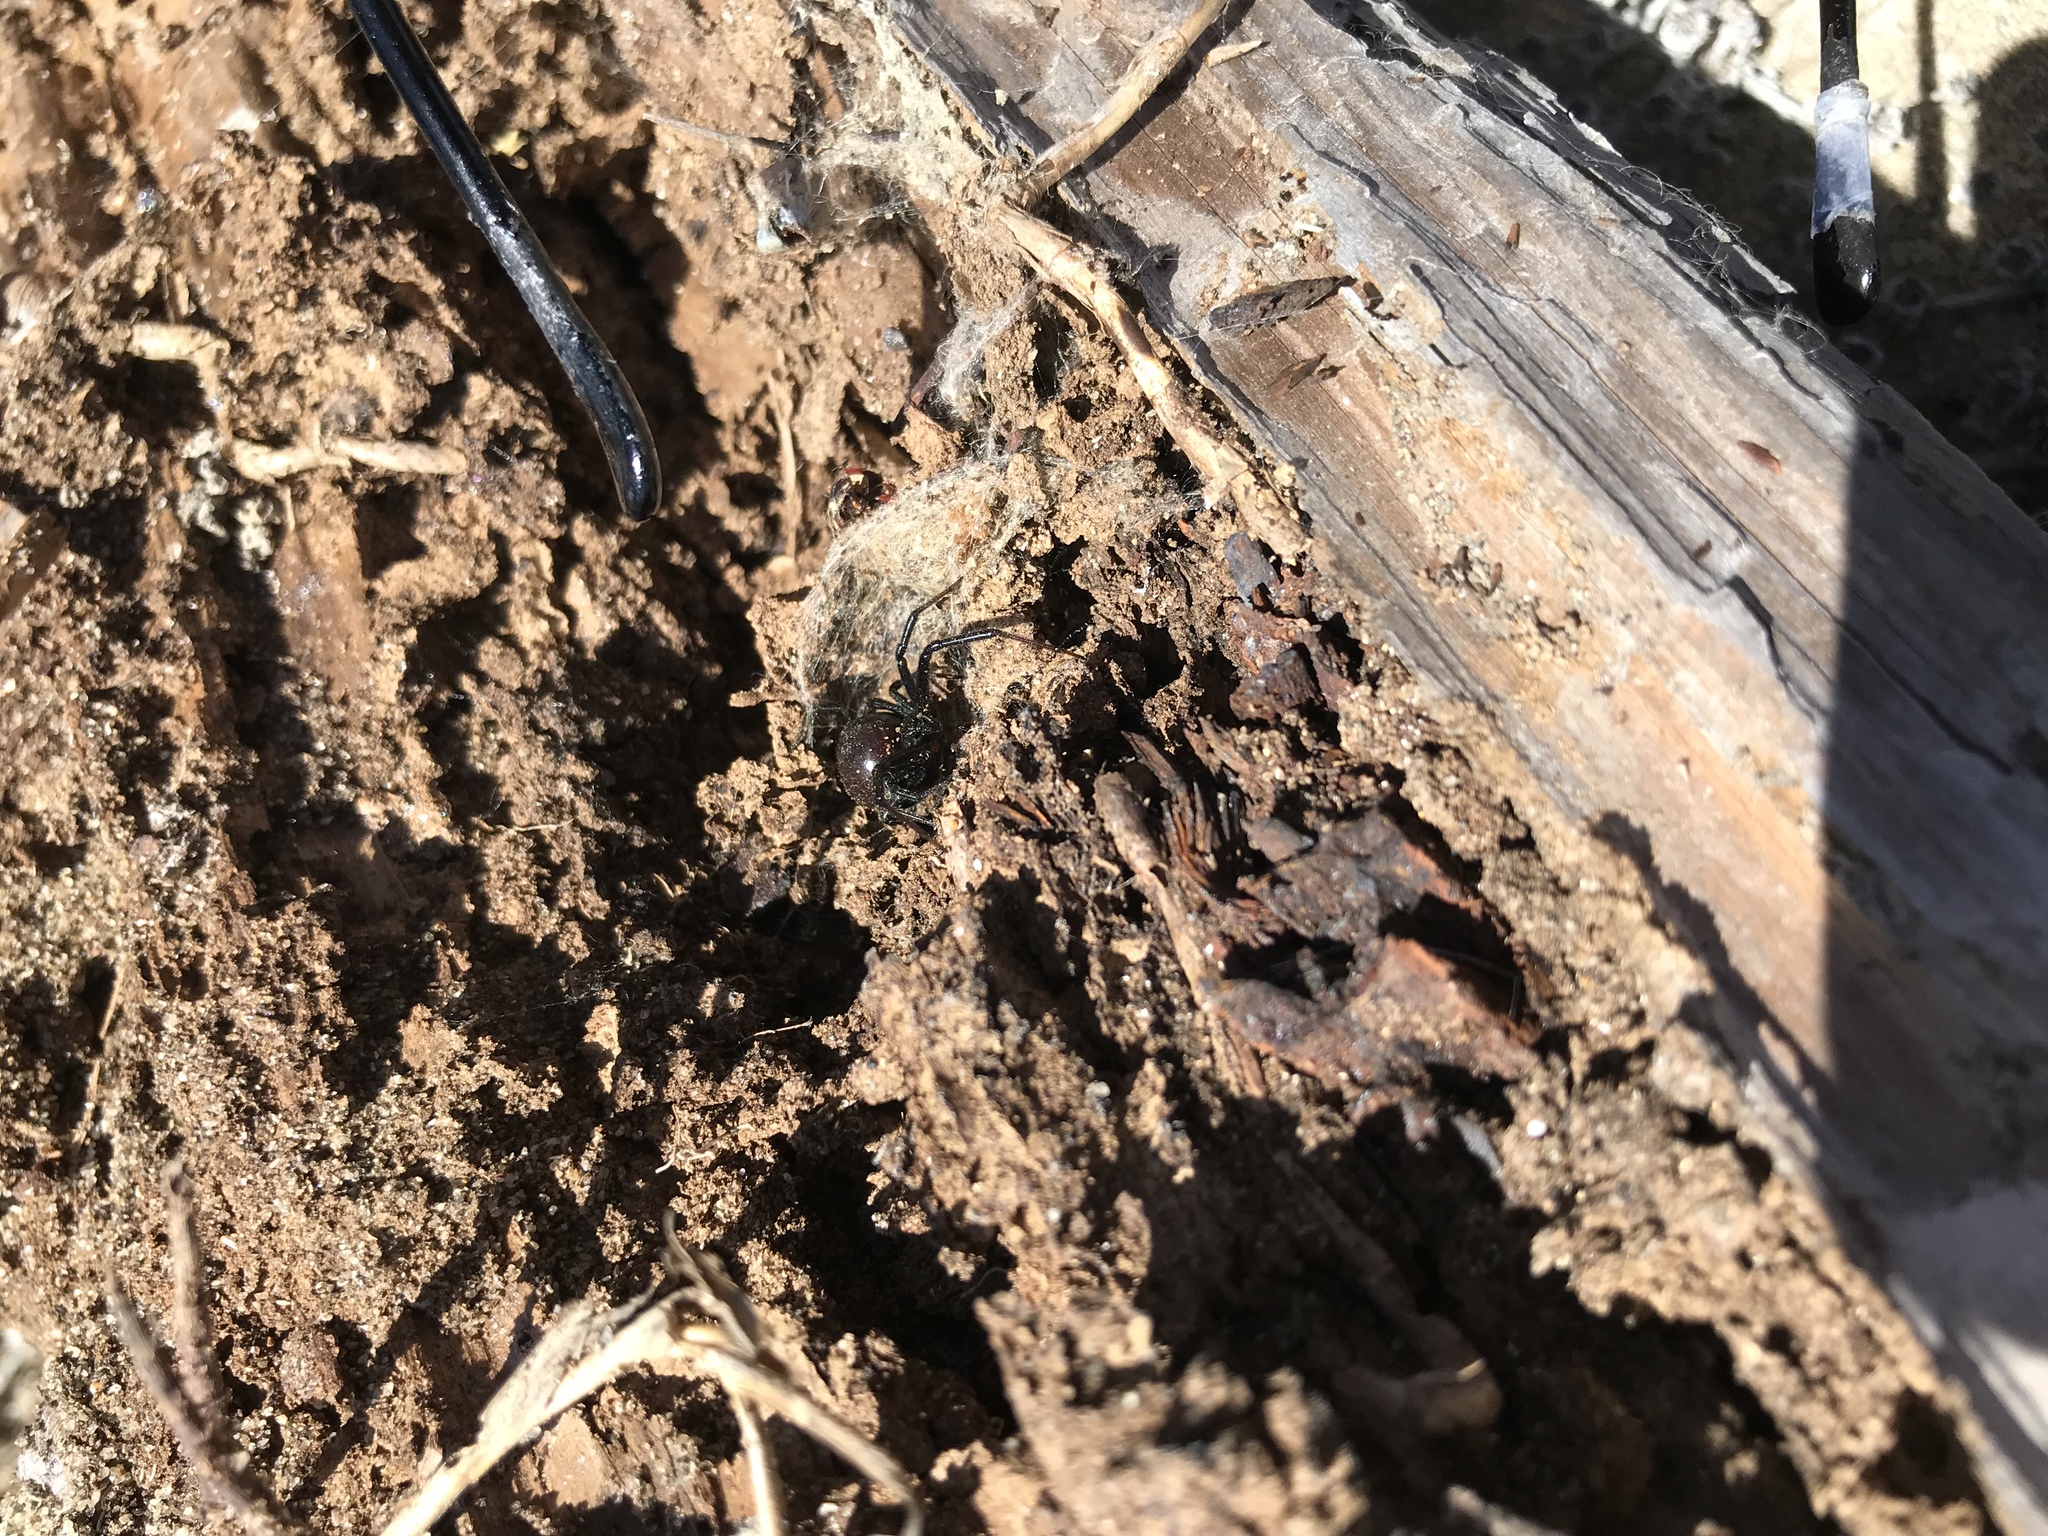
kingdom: Animalia
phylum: Arthropoda
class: Arachnida
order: Araneae
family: Theridiidae
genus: Latrodectus
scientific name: Latrodectus hesperus
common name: Western black widow
